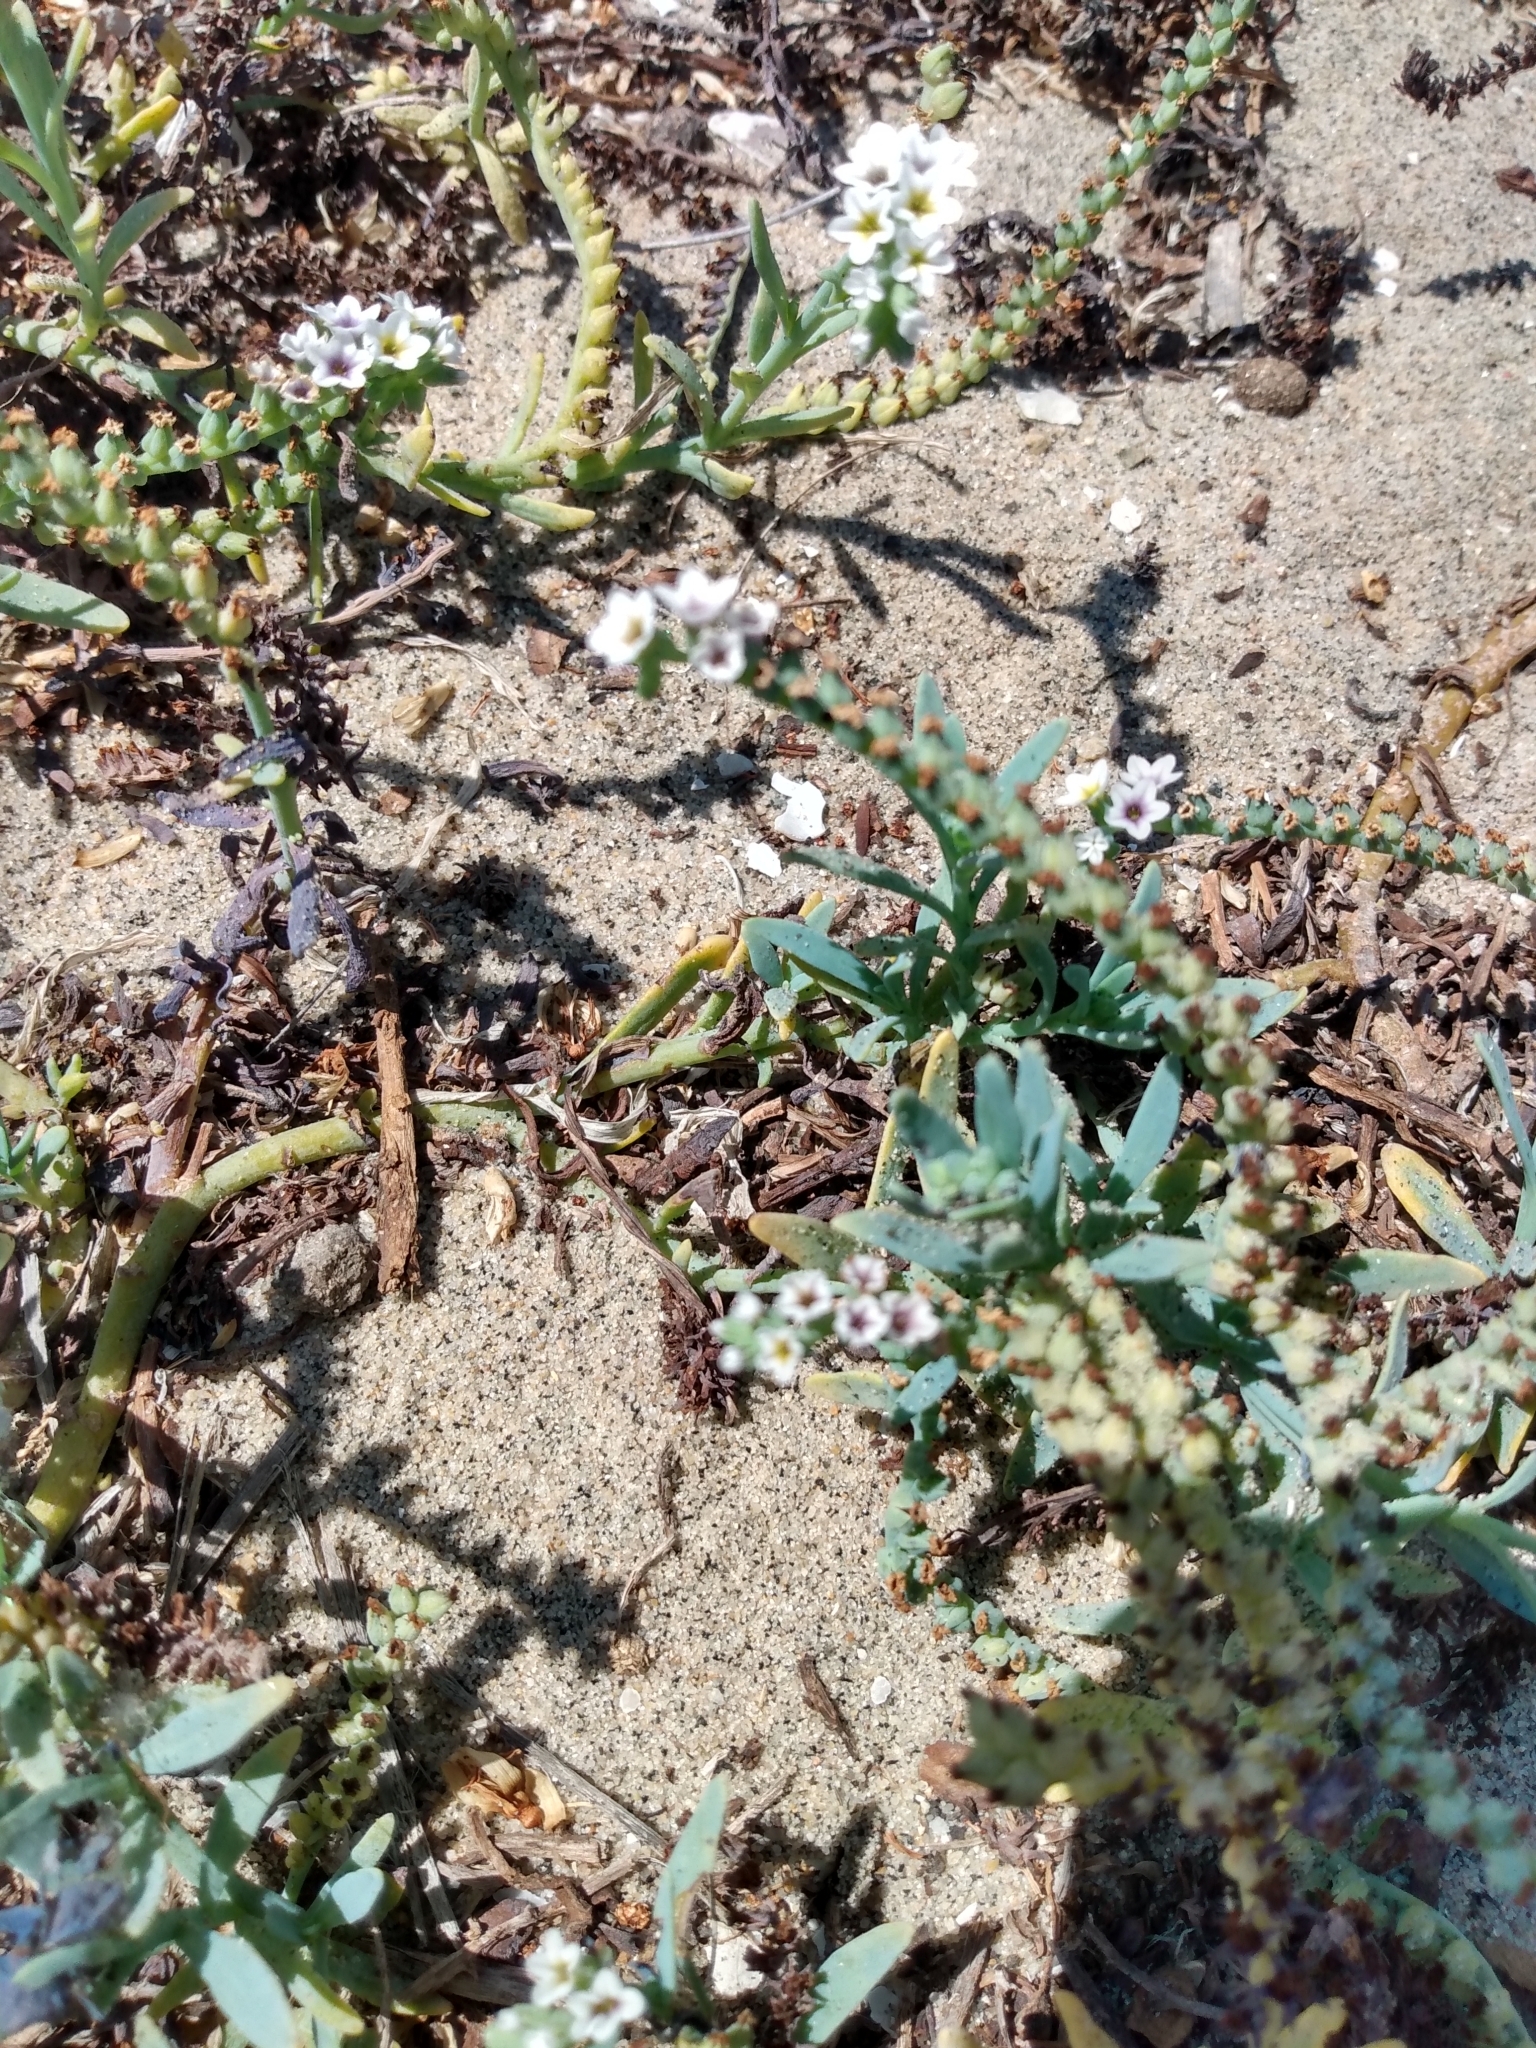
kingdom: Plantae
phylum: Tracheophyta
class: Magnoliopsida
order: Boraginales
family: Heliotropiaceae
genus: Heliotropium
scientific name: Heliotropium curassavicum
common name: Seaside heliotrope
